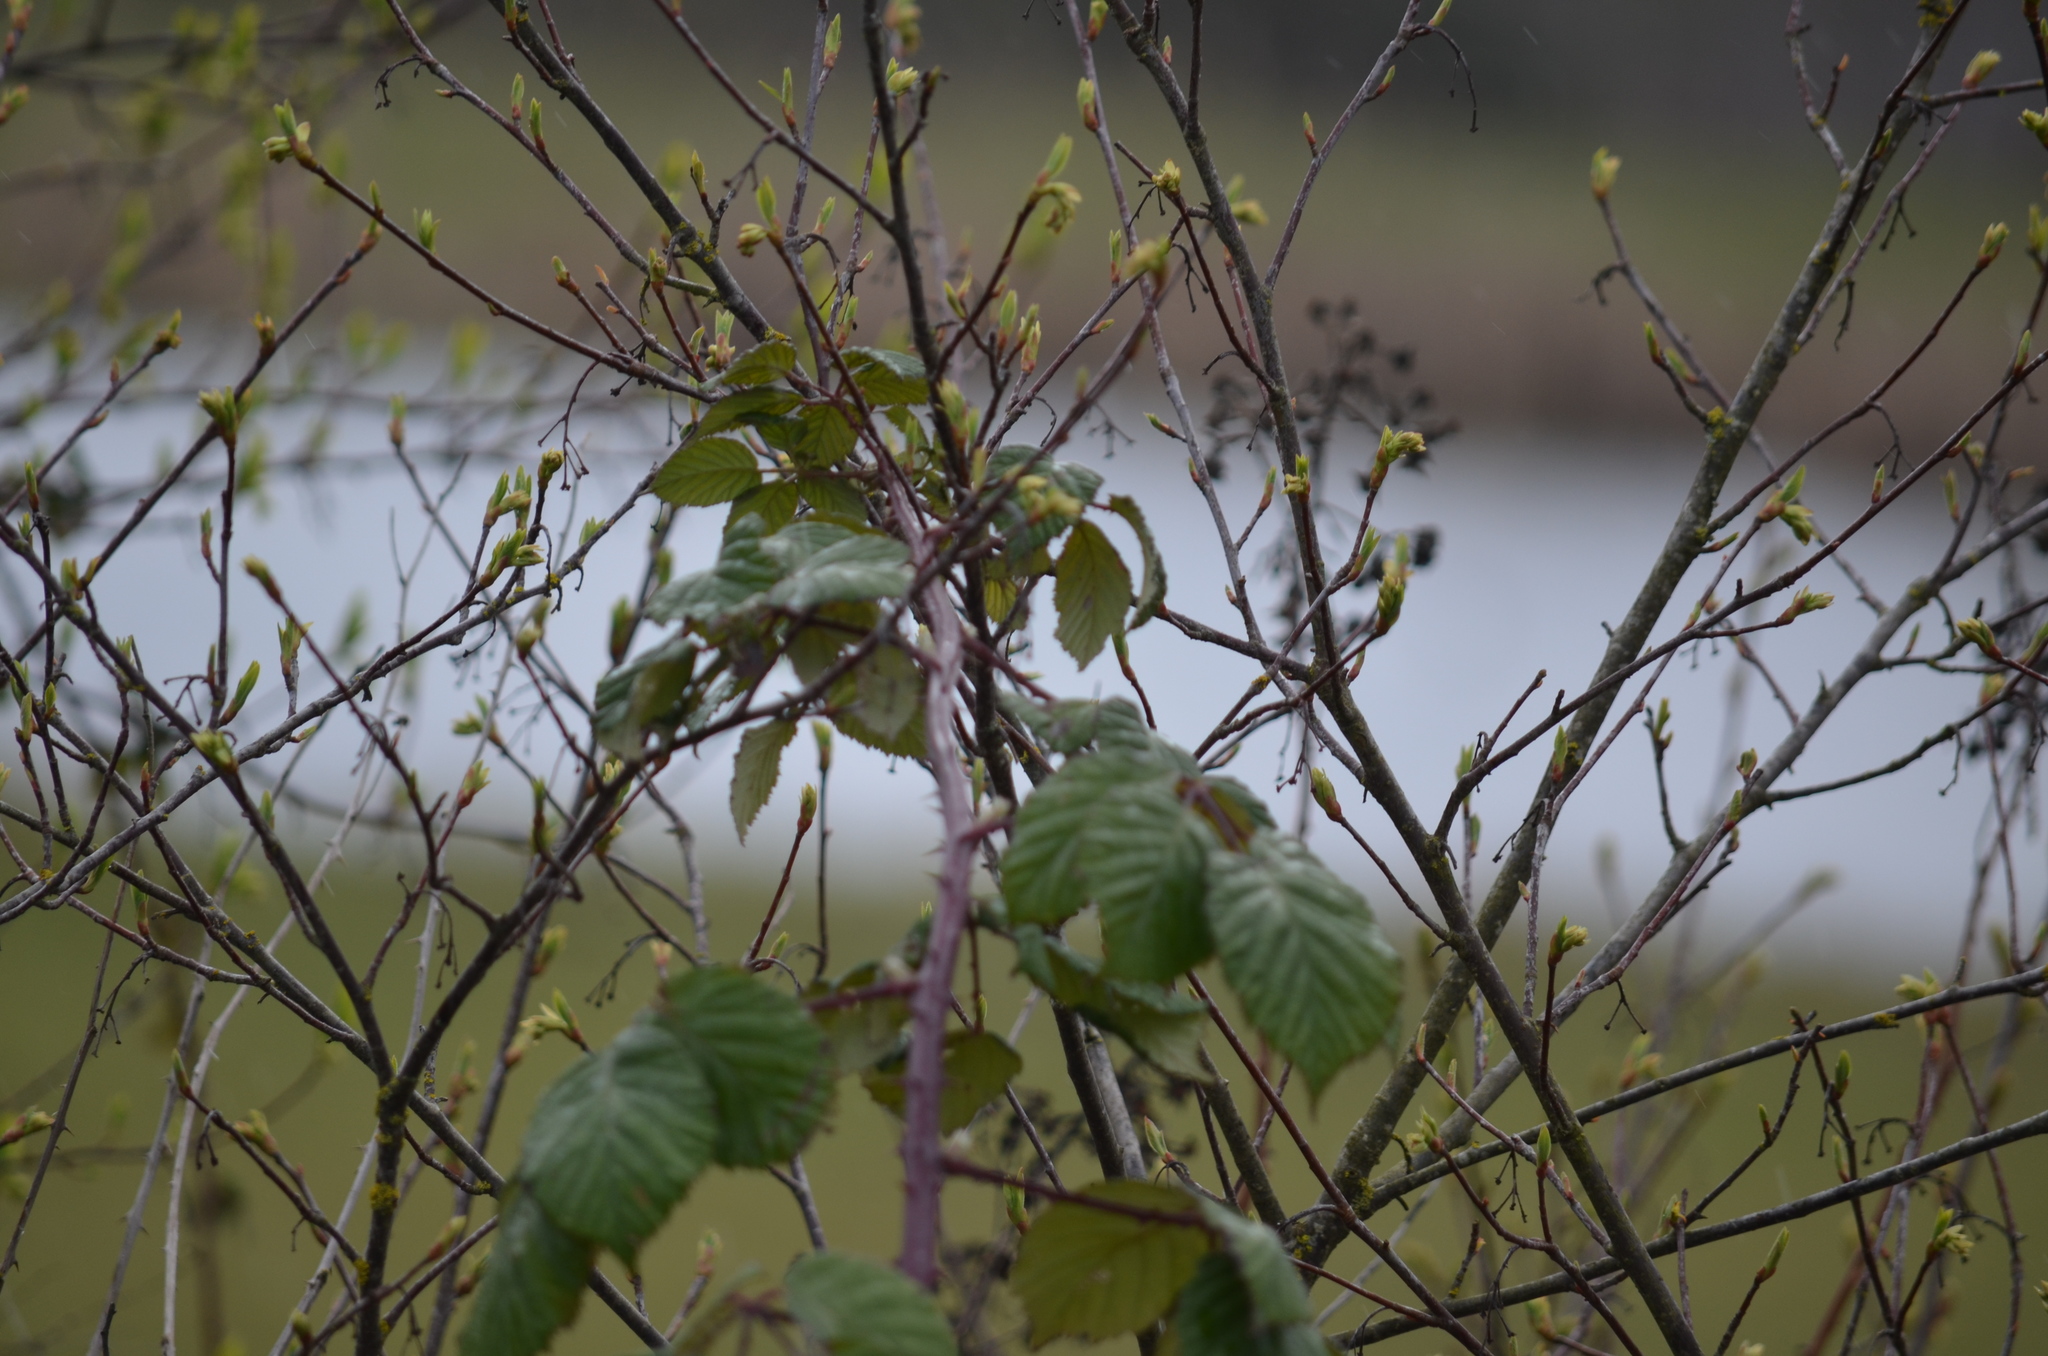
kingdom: Plantae
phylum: Tracheophyta
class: Magnoliopsida
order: Rosales
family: Rosaceae
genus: Rubus
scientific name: Rubus armeniacus
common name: Himalayan blackberry
